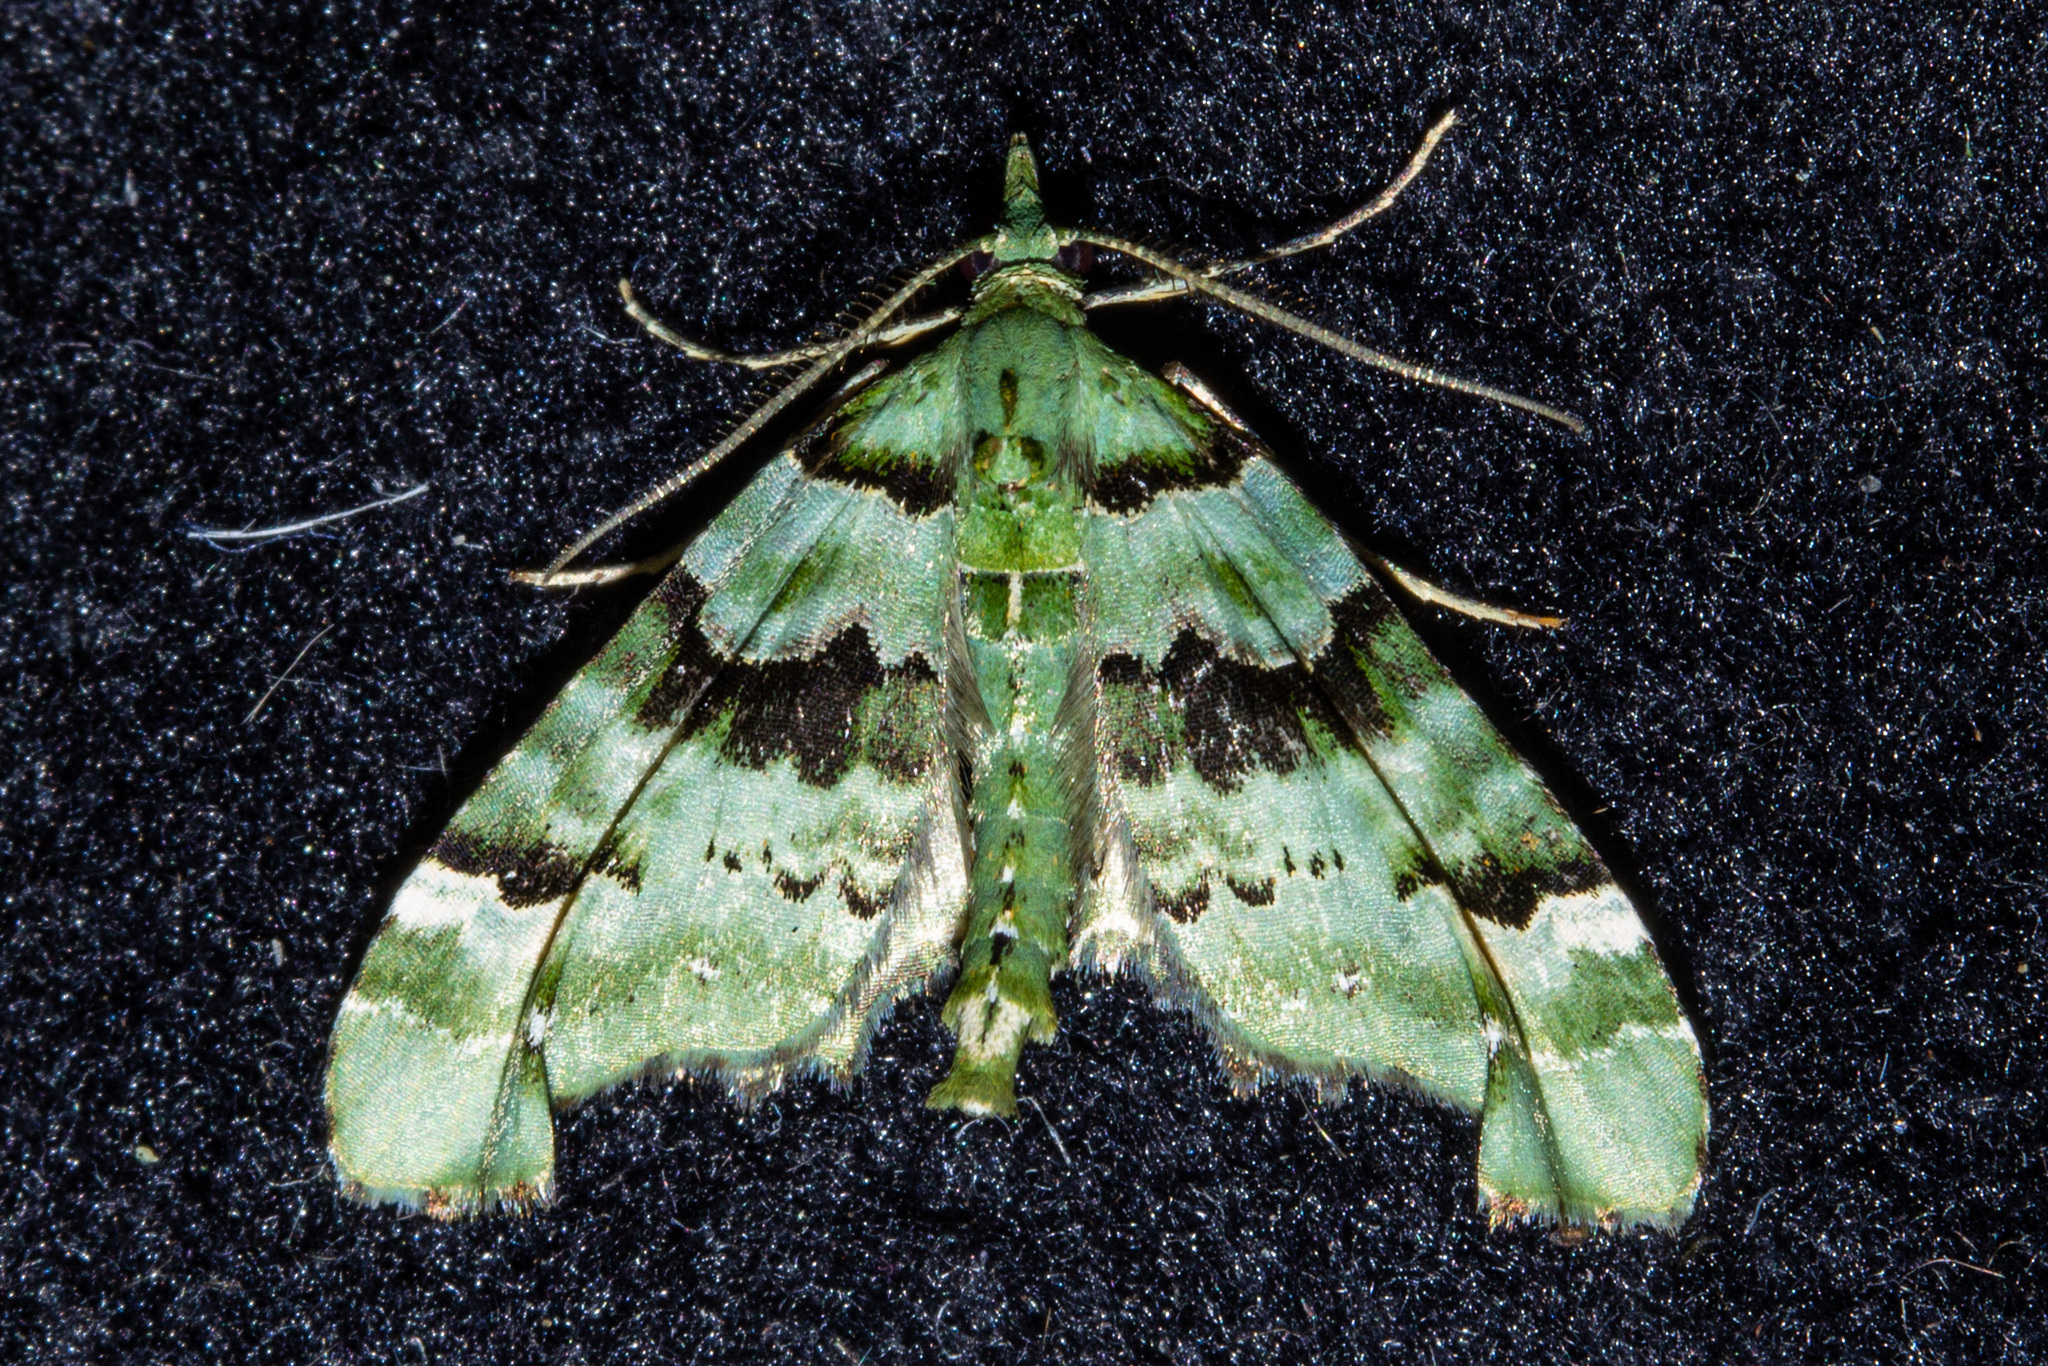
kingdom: Animalia
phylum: Arthropoda
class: Insecta
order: Lepidoptera
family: Geometridae
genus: Elvia
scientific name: Elvia glaucata
